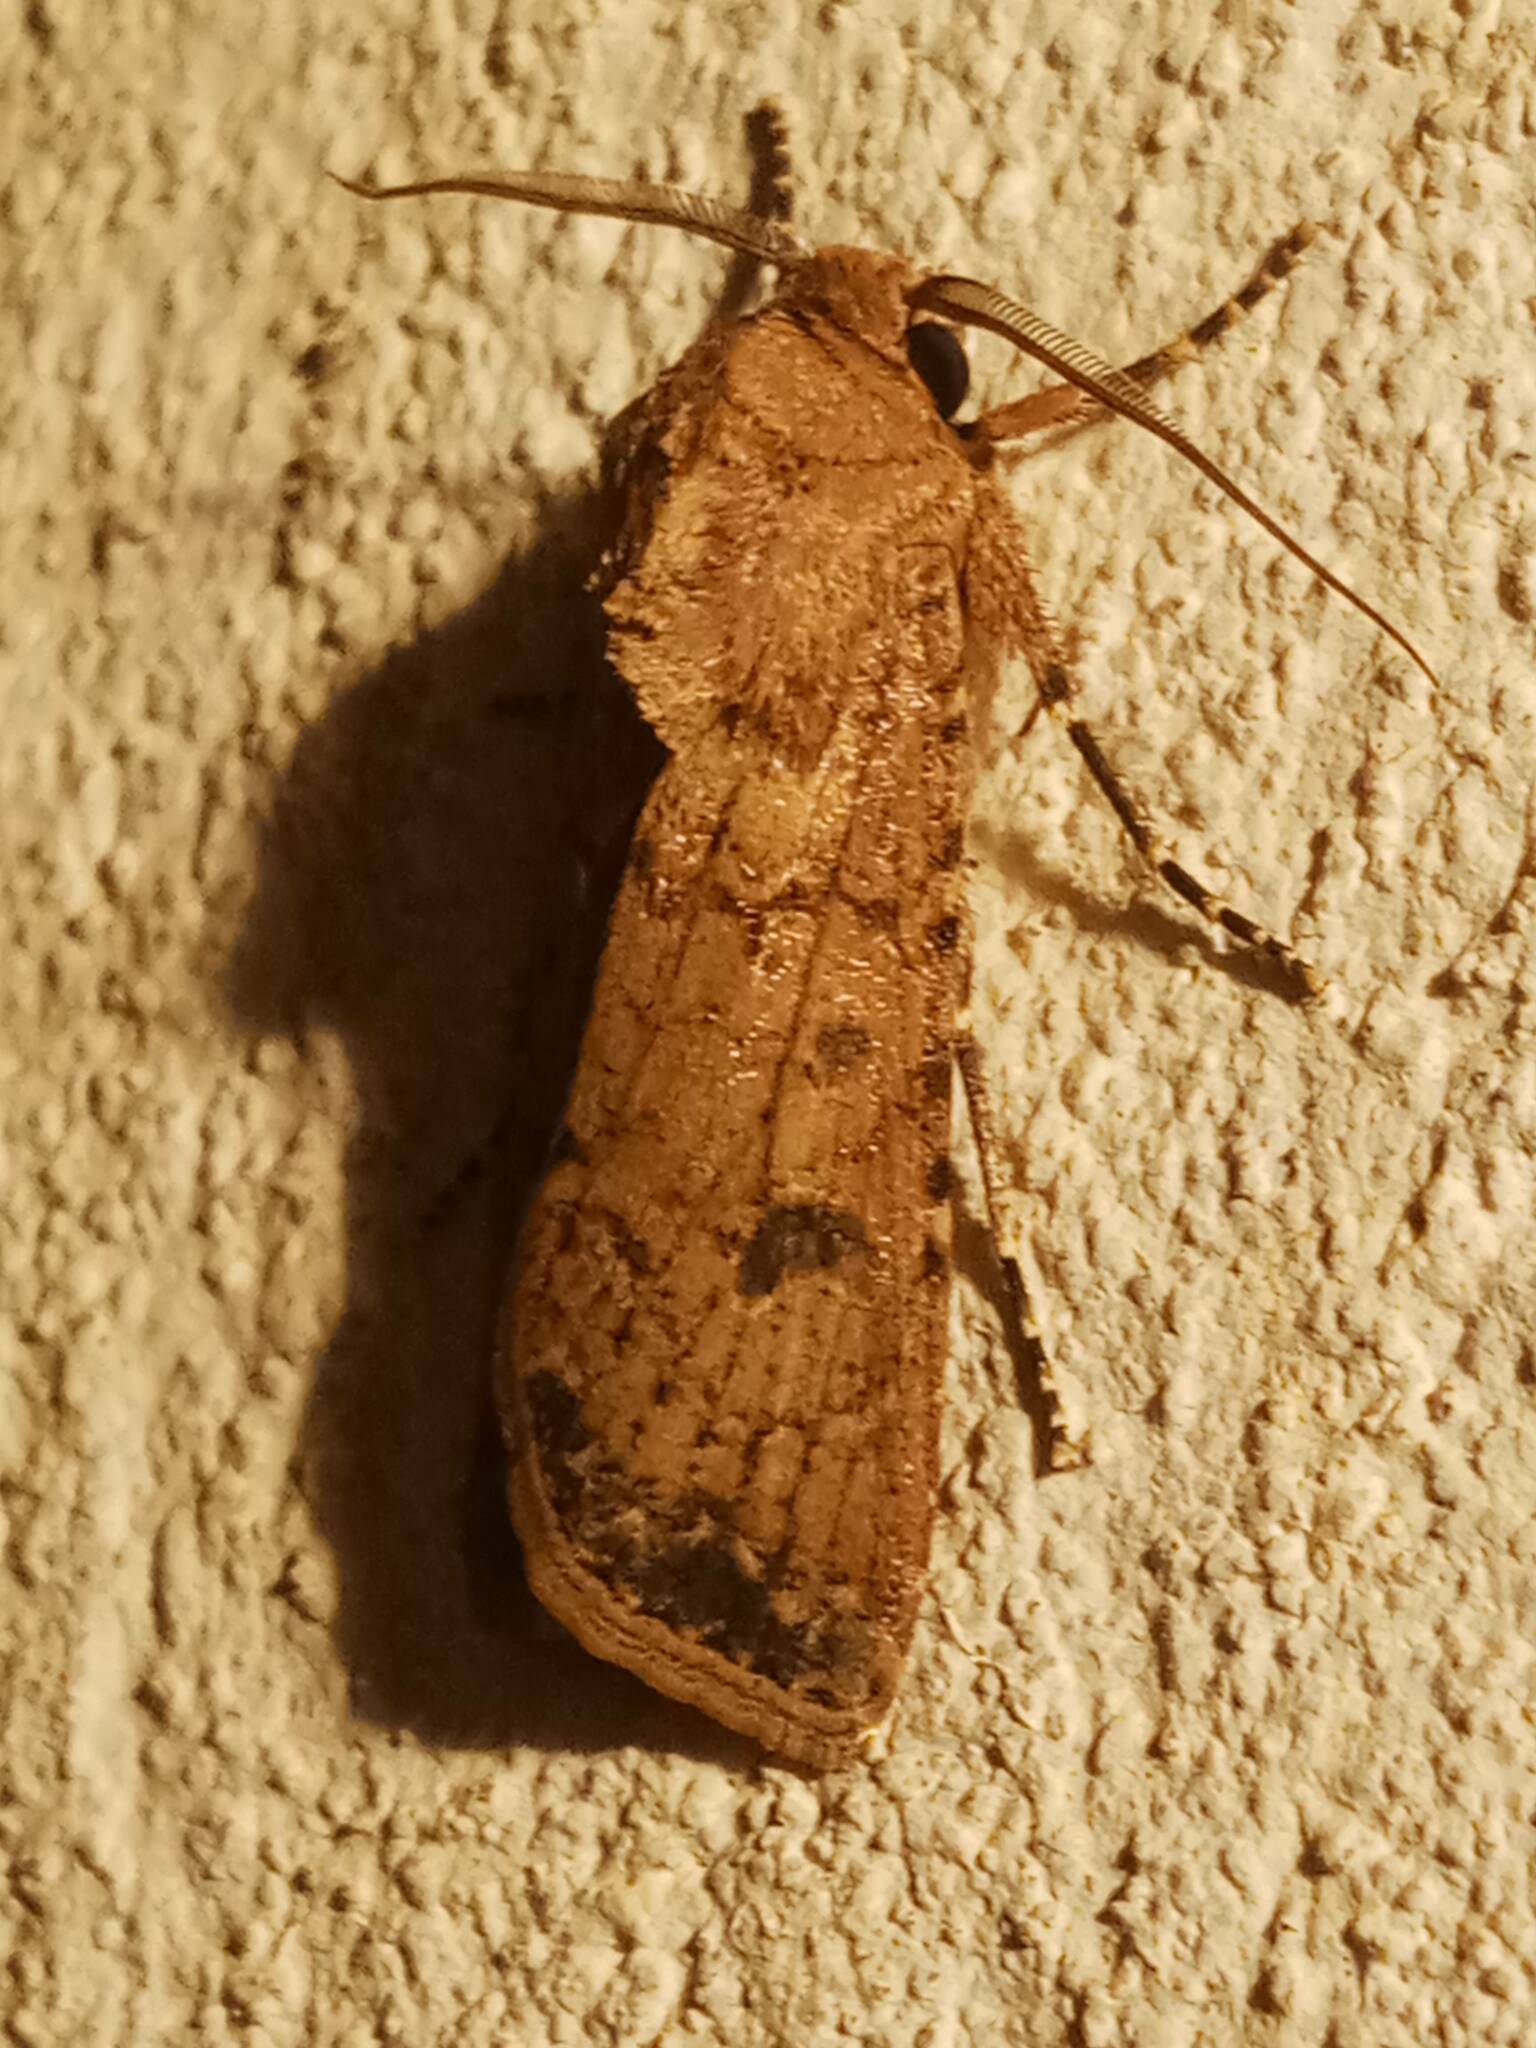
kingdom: Animalia
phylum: Arthropoda
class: Insecta
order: Lepidoptera
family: Noctuidae
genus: Agrotis
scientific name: Agrotis segetum
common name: Turnip moth
